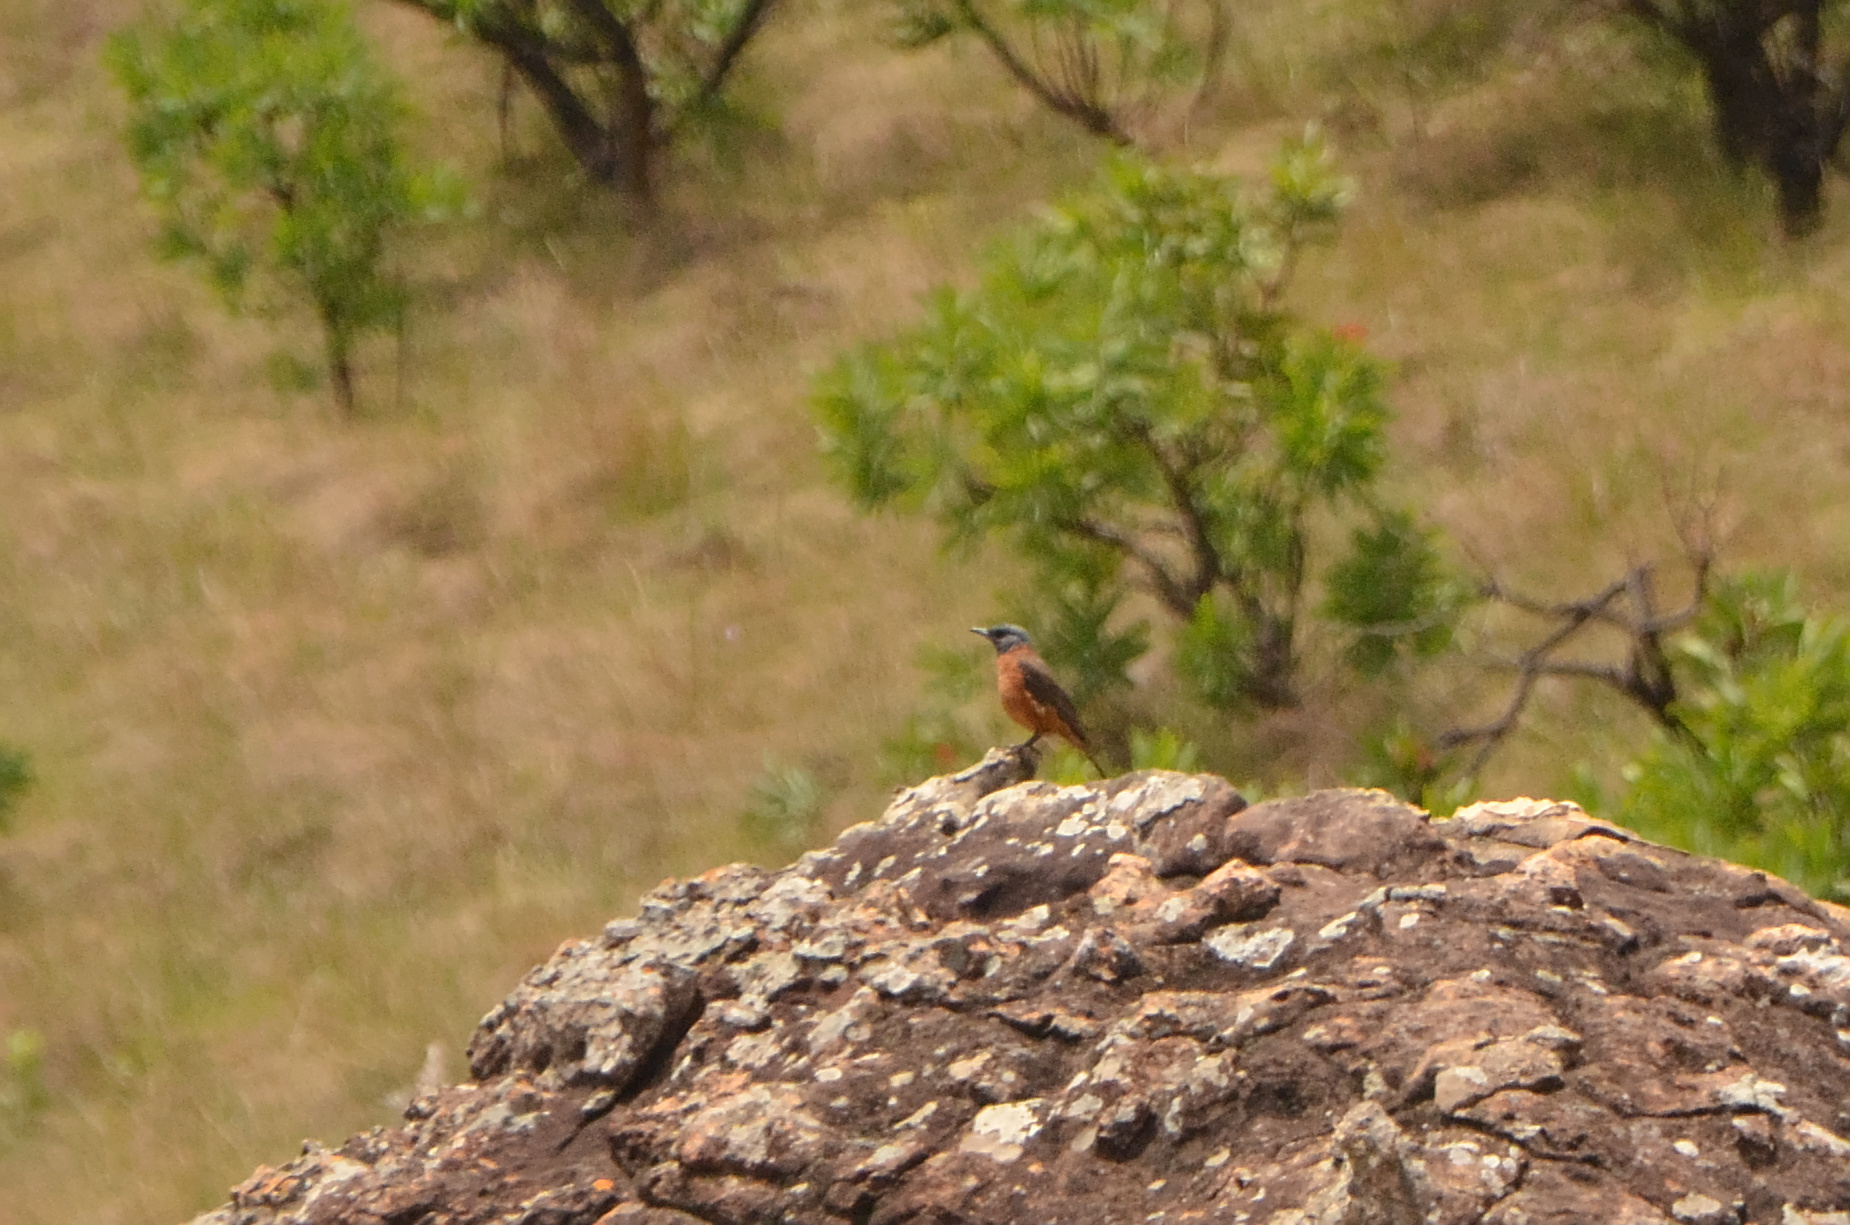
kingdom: Animalia
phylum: Chordata
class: Aves
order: Passeriformes
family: Muscicapidae
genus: Monticola
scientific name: Monticola rupestris
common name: Cape rock thrush
